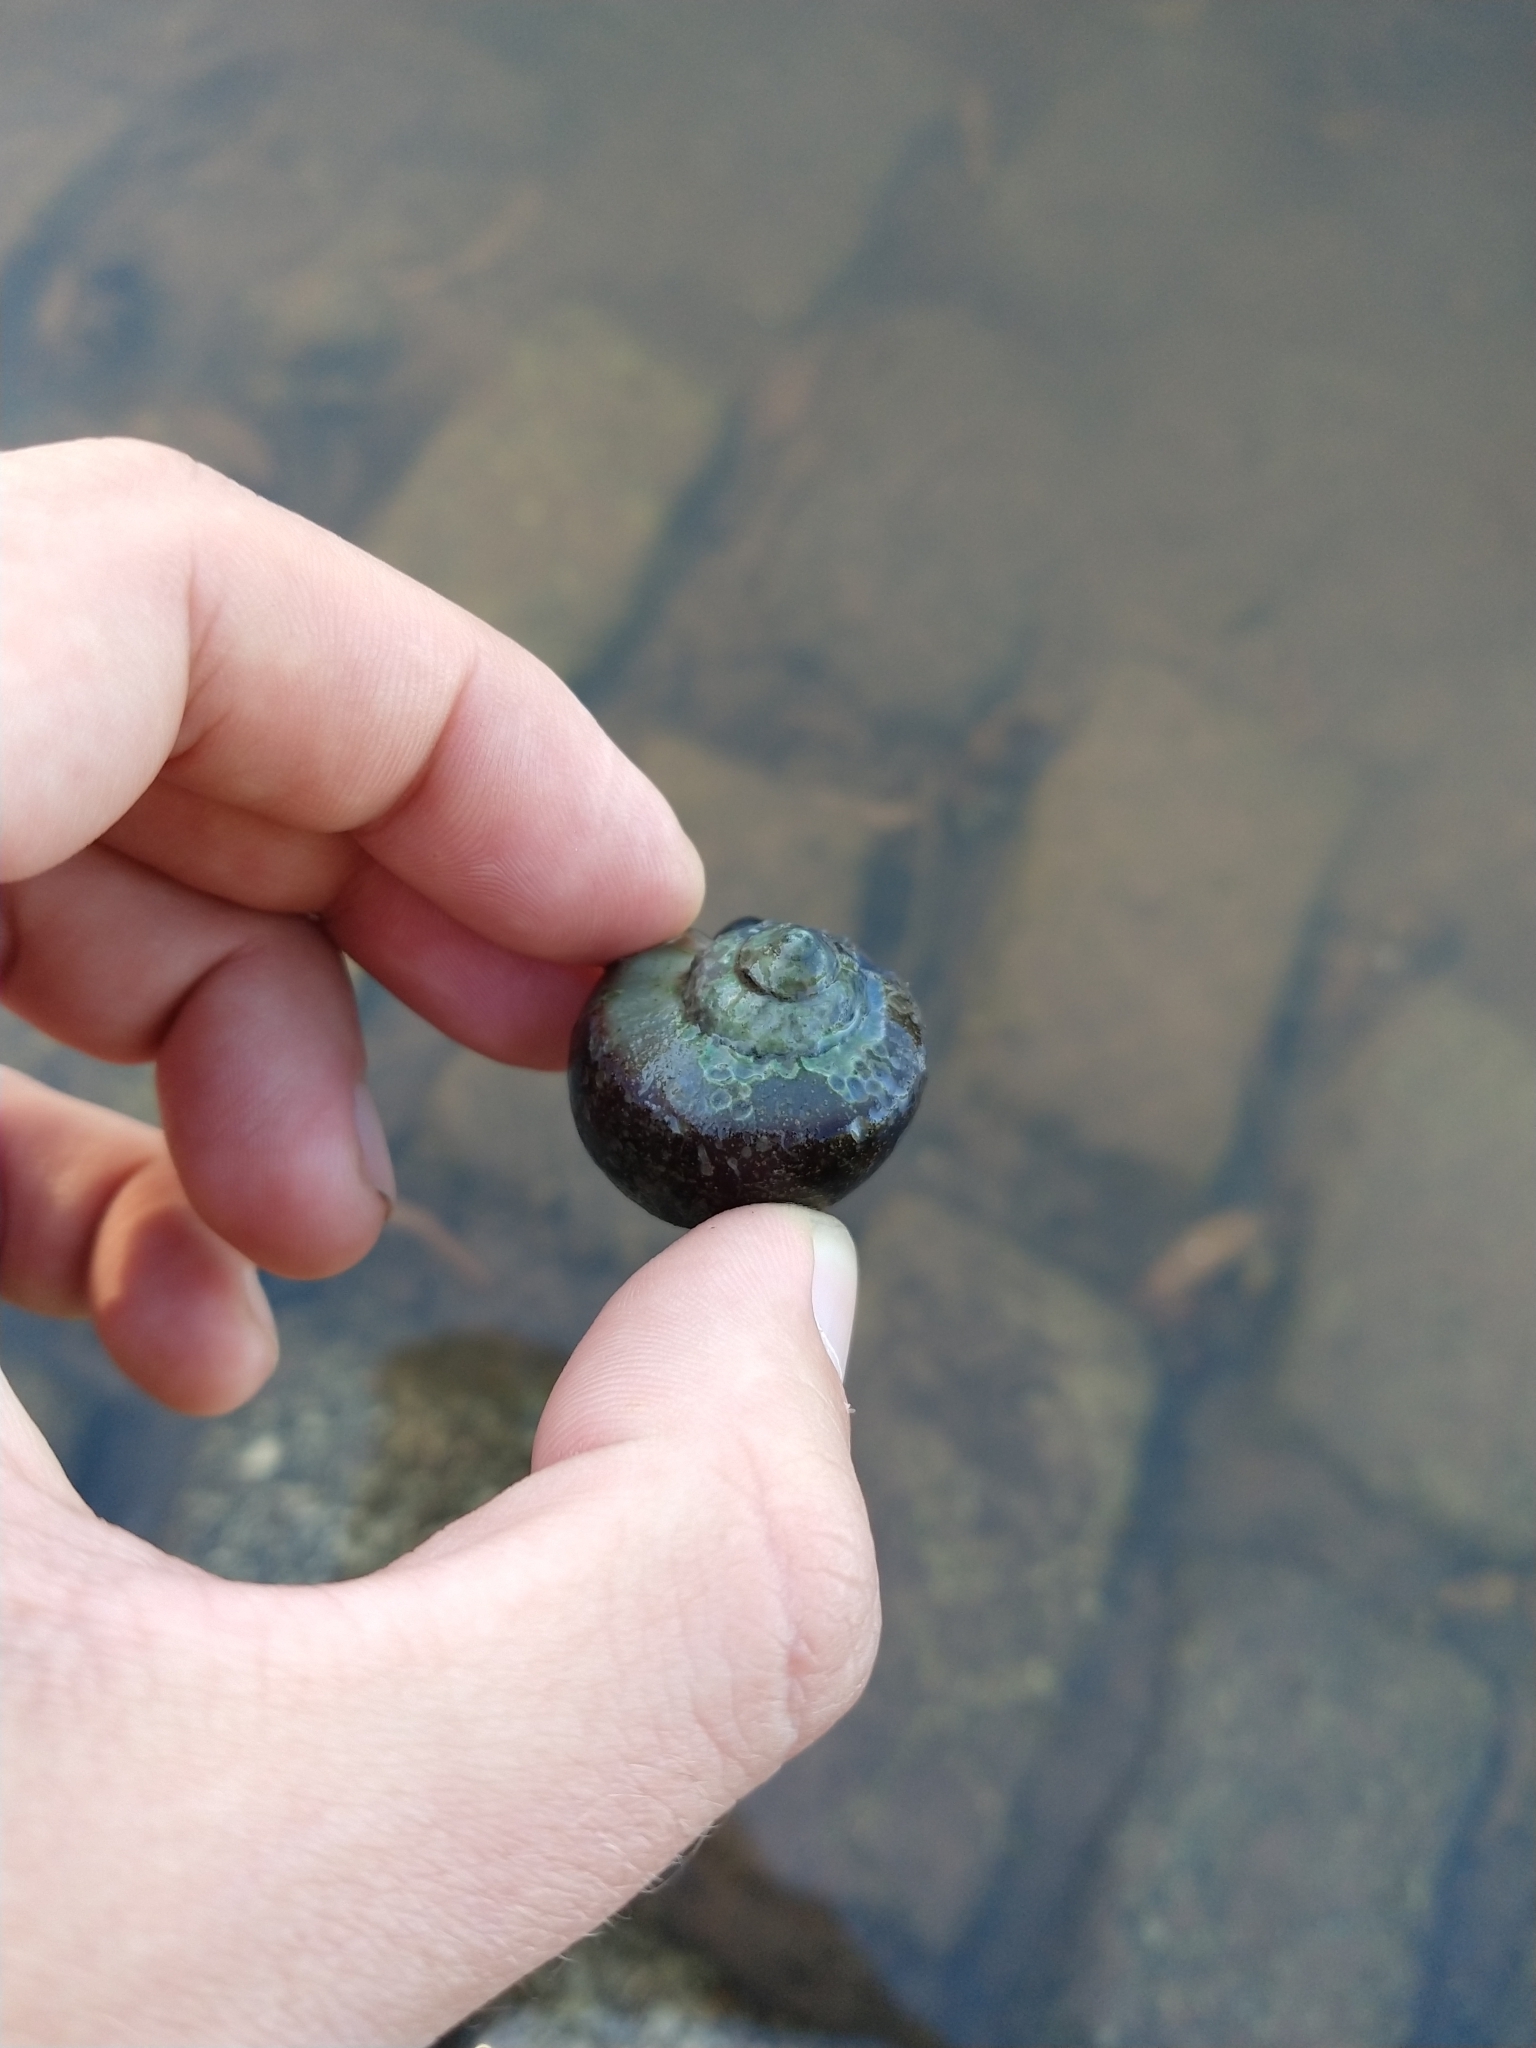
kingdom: Animalia
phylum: Mollusca
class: Gastropoda
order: Architaenioglossa
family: Ampullariidae
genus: Pomacea
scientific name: Pomacea scalaris
